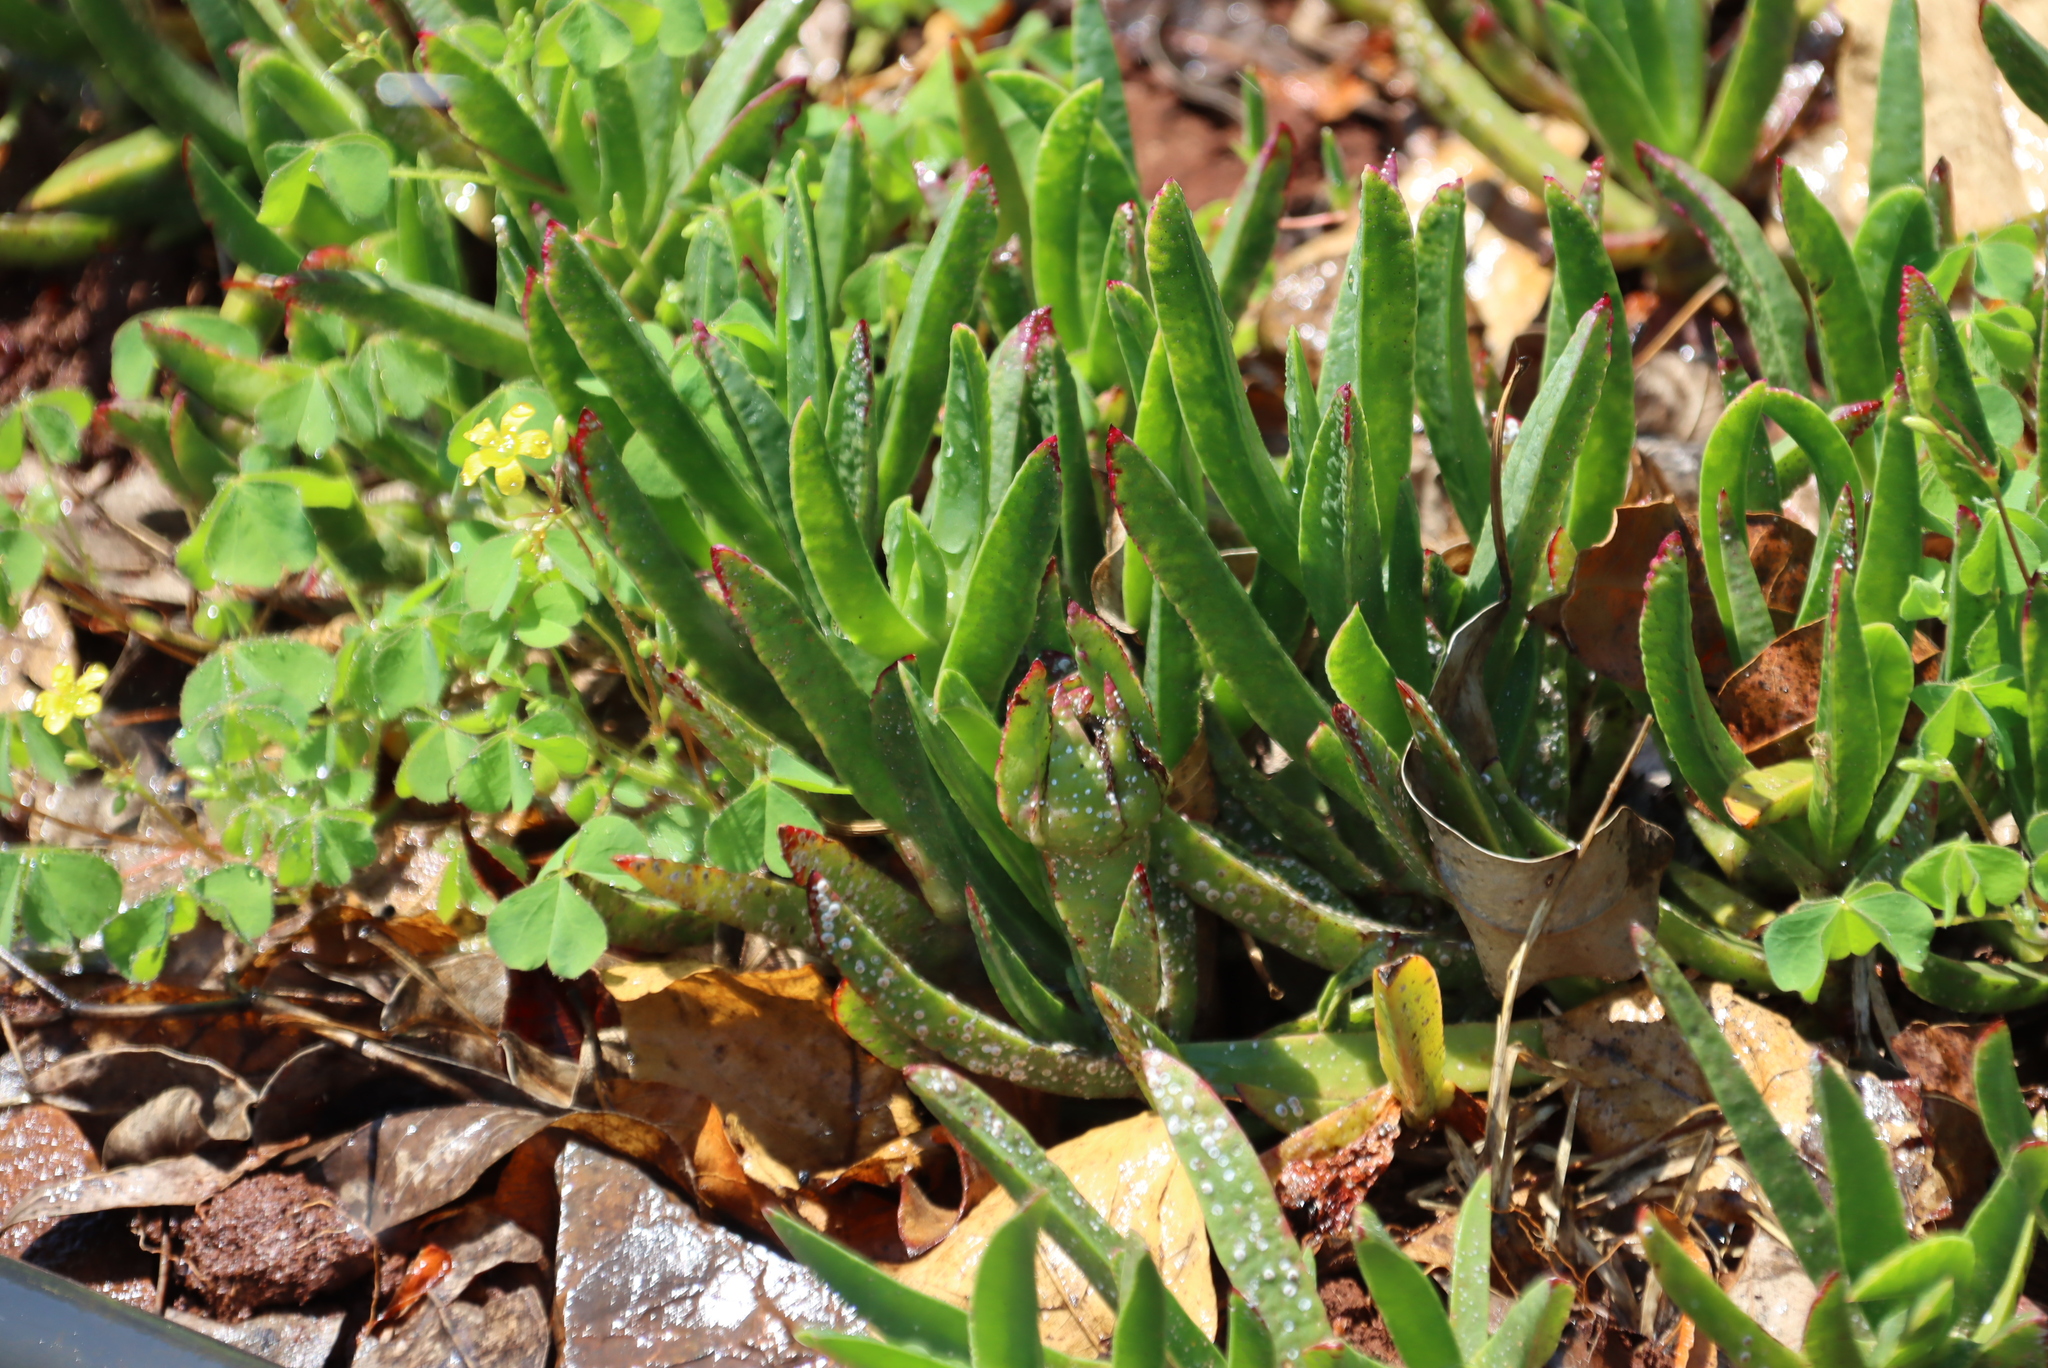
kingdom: Plantae
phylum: Tracheophyta
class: Magnoliopsida
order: Oxalidales
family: Oxalidaceae
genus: Oxalis
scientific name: Oxalis corniculata
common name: Procumbent yellow-sorrel
